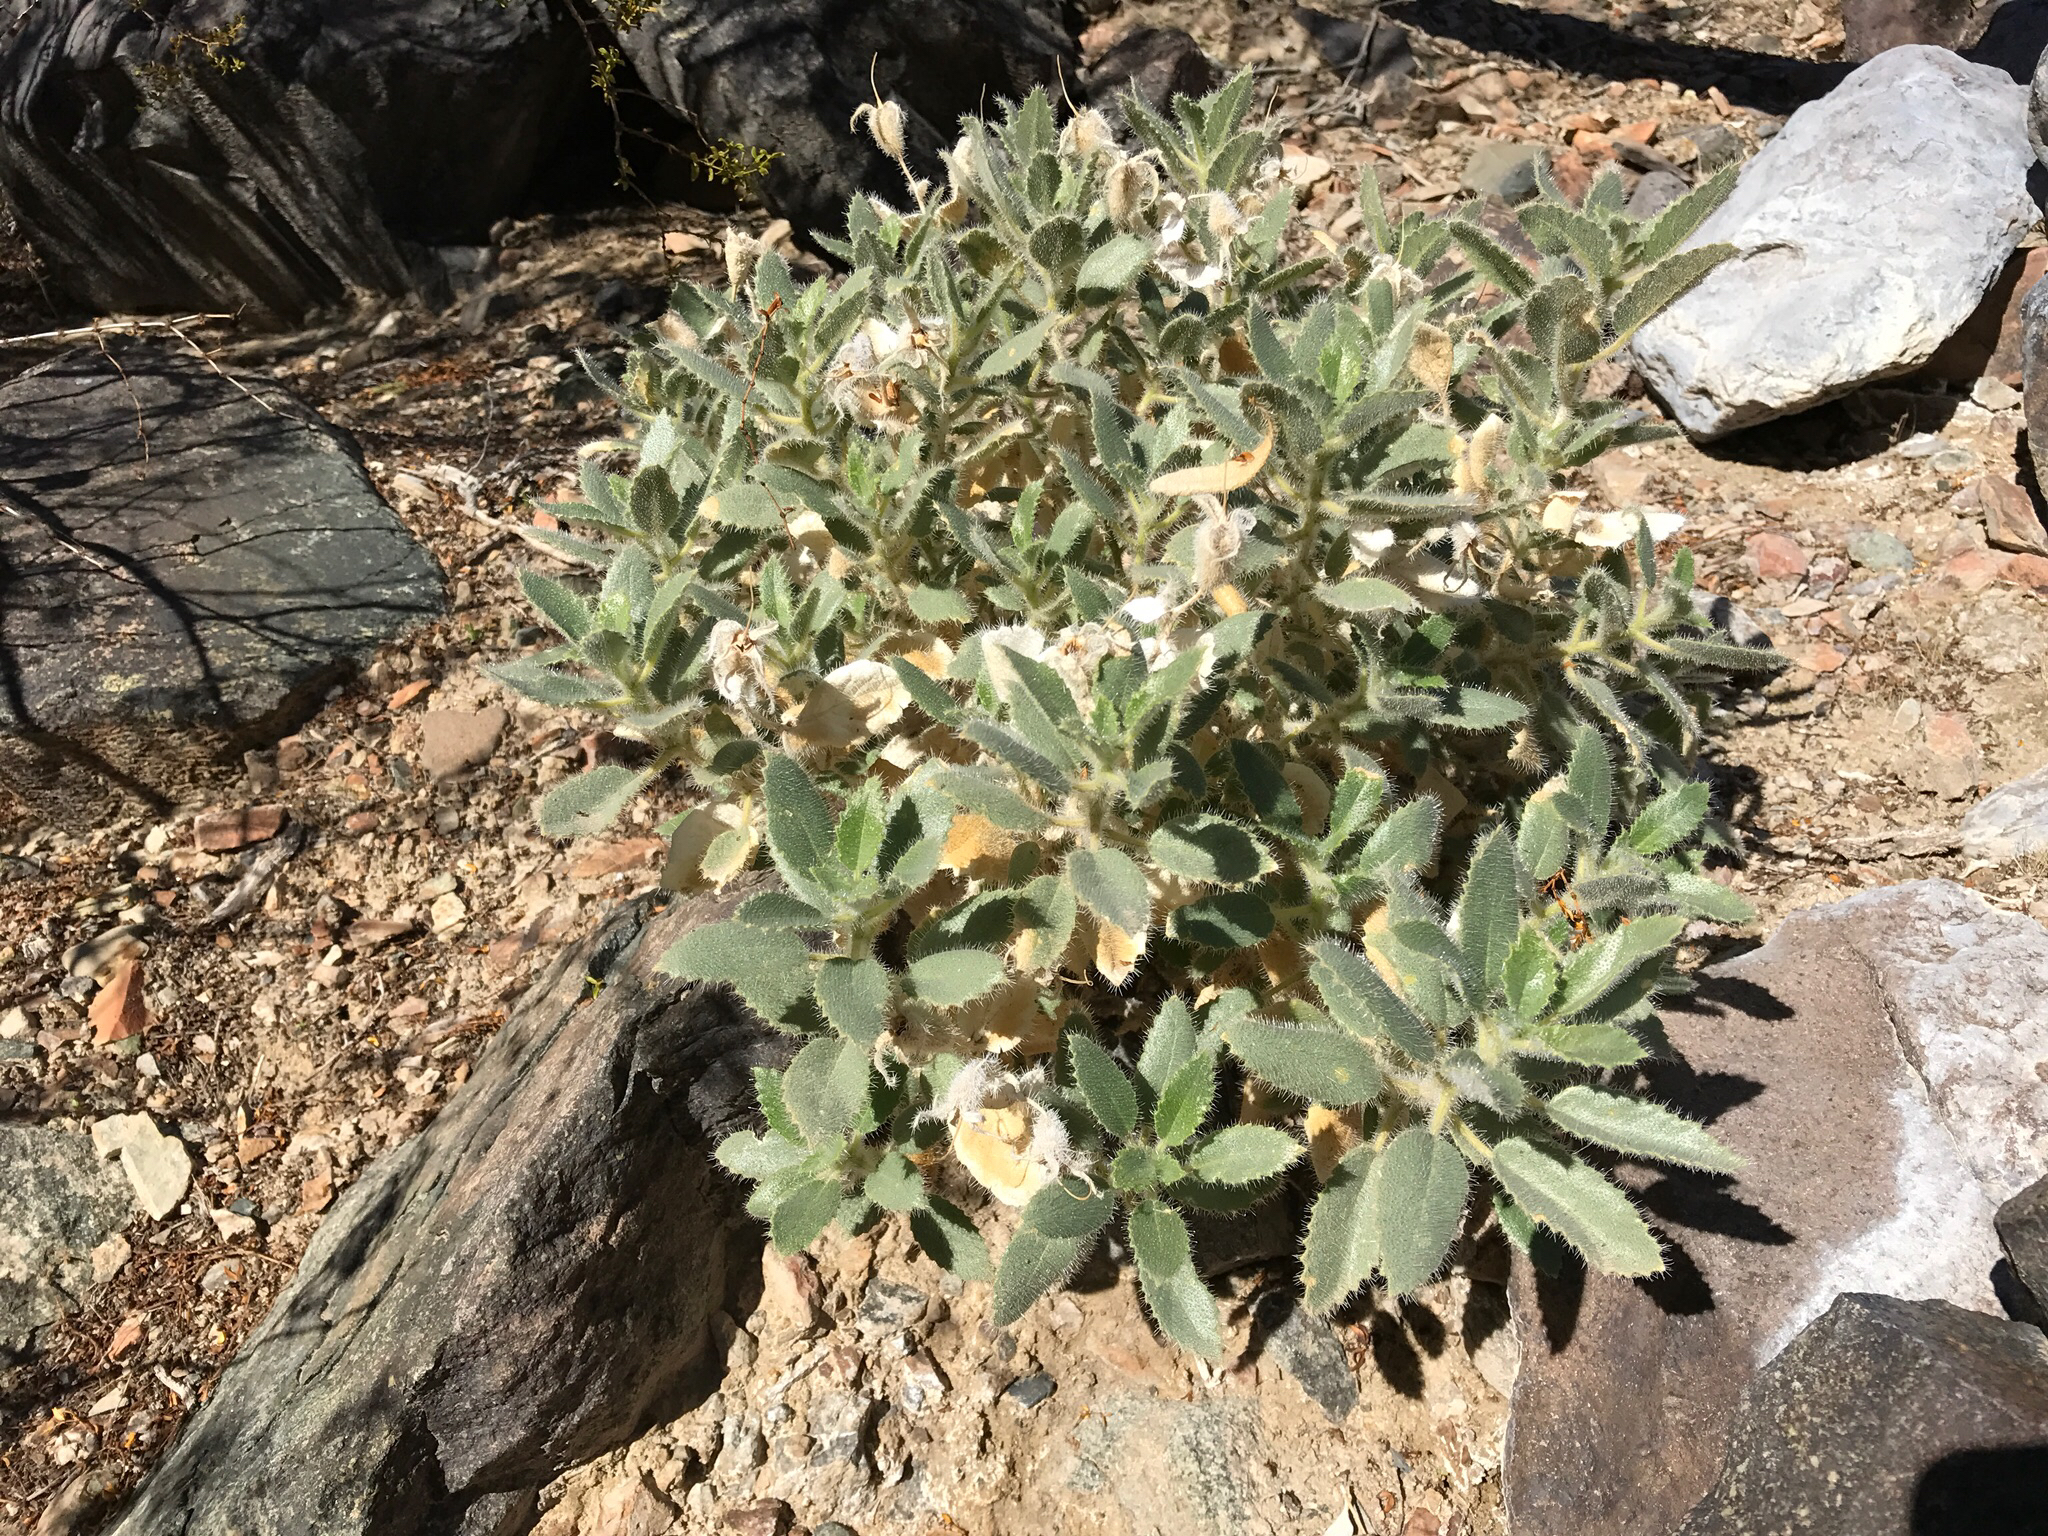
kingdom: Plantae
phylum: Tracheophyta
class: Magnoliopsida
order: Cornales
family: Loasaceae
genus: Eucnide
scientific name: Eucnide urens
